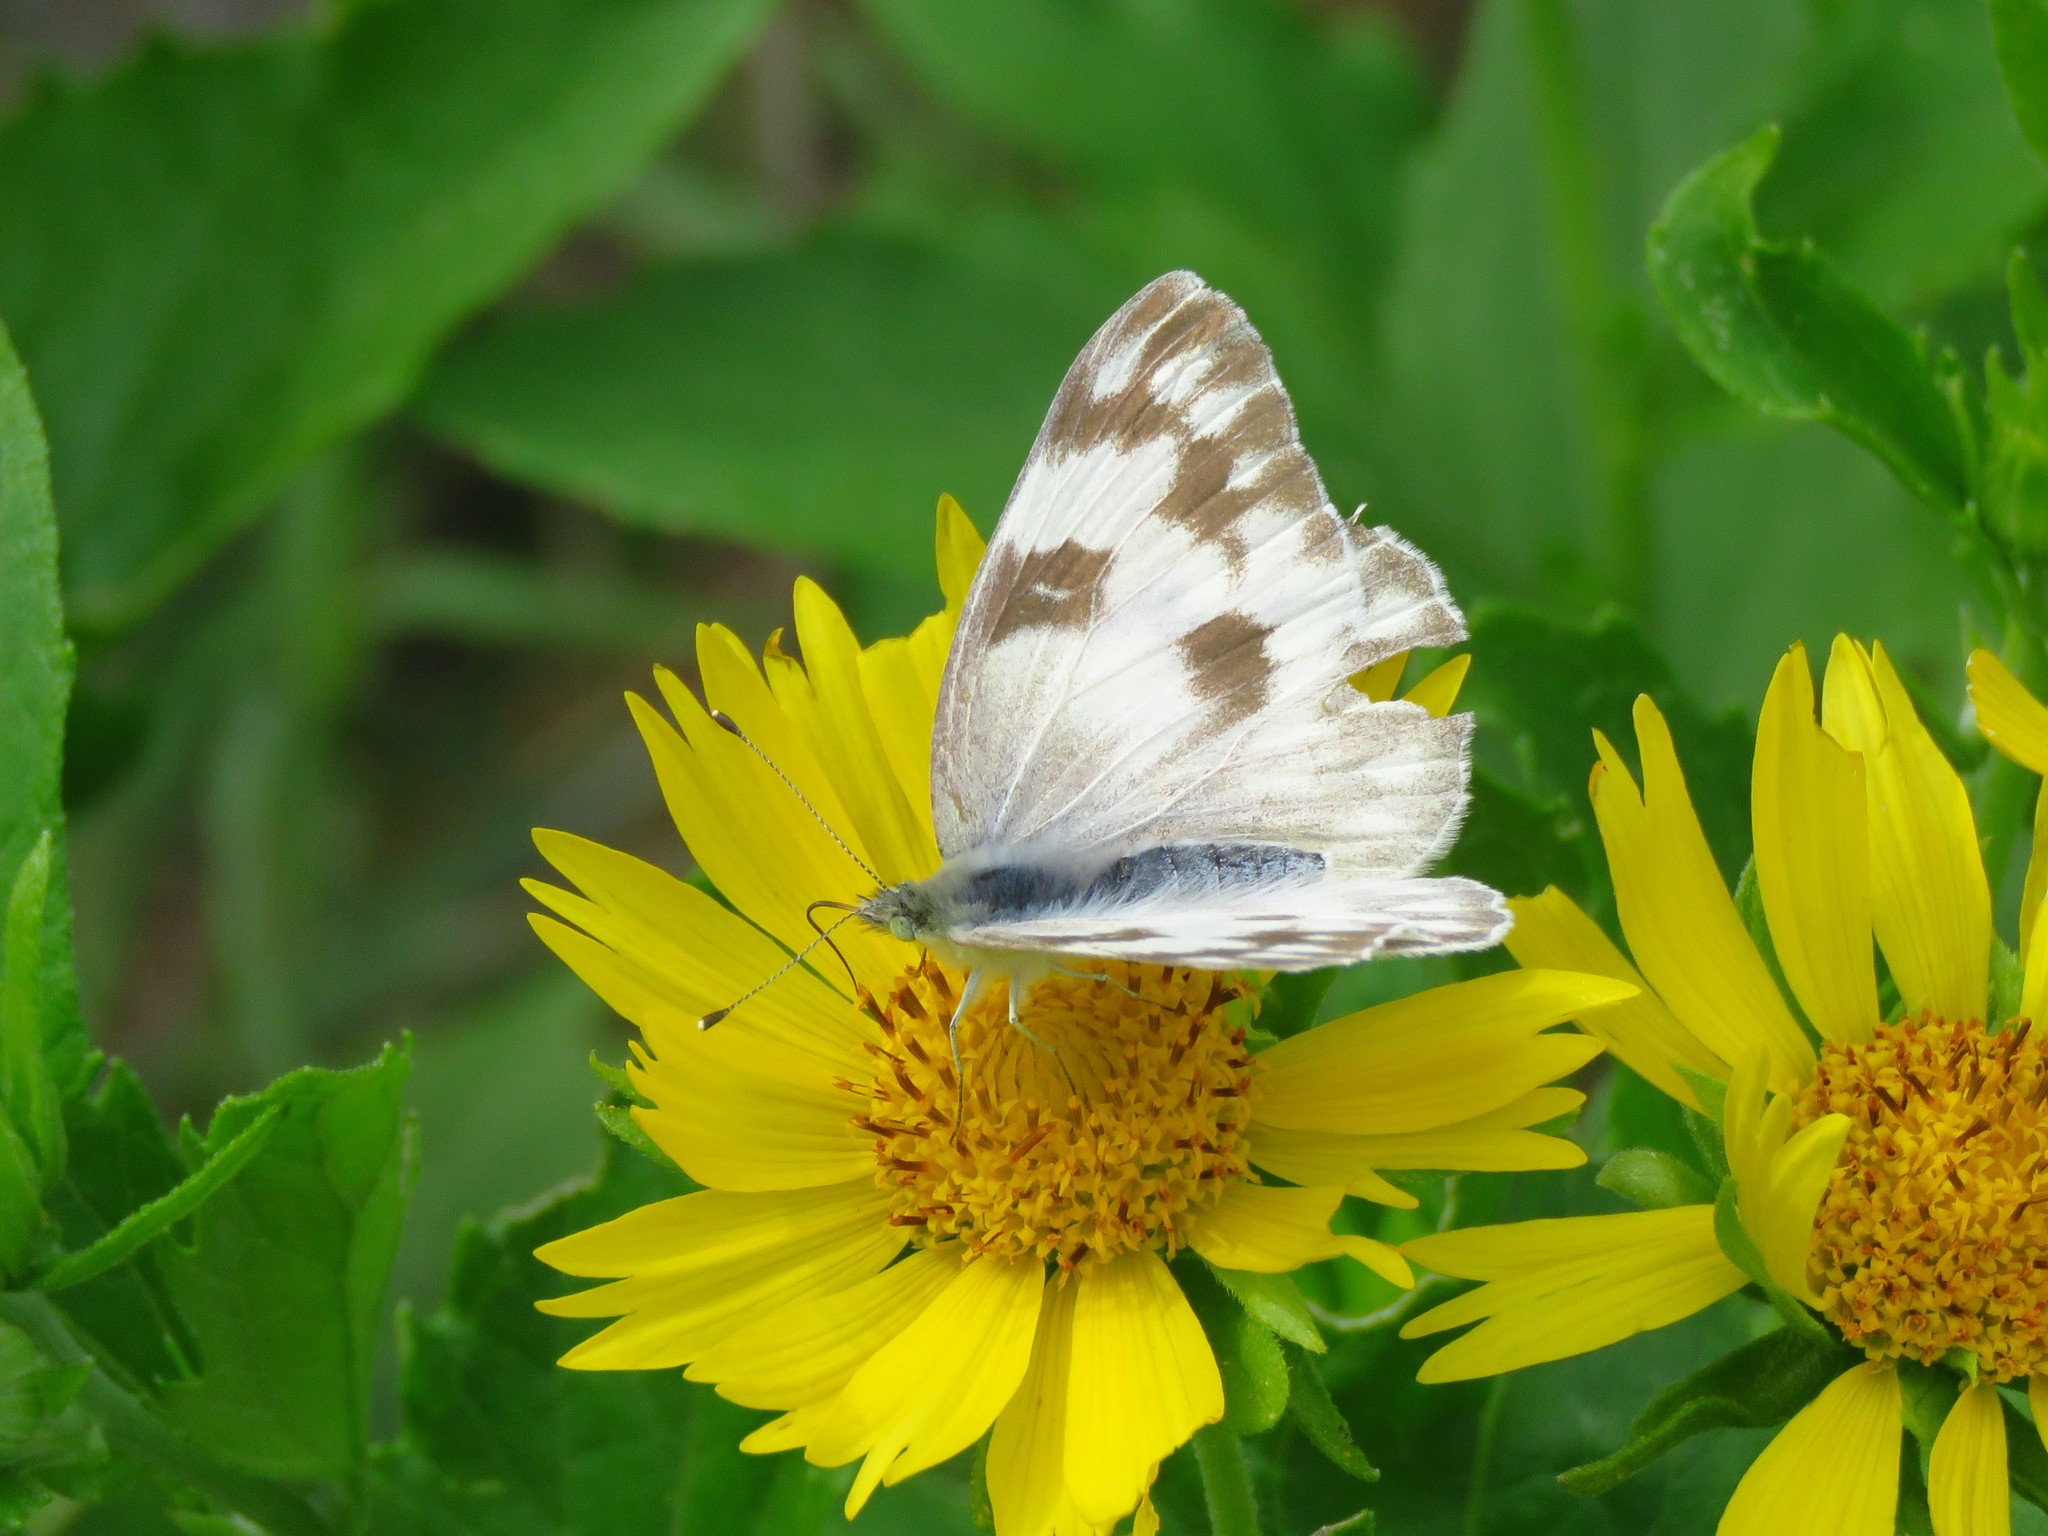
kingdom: Animalia
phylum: Arthropoda
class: Insecta
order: Lepidoptera
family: Pieridae
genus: Pontia
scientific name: Pontia protodice
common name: Checkered white
